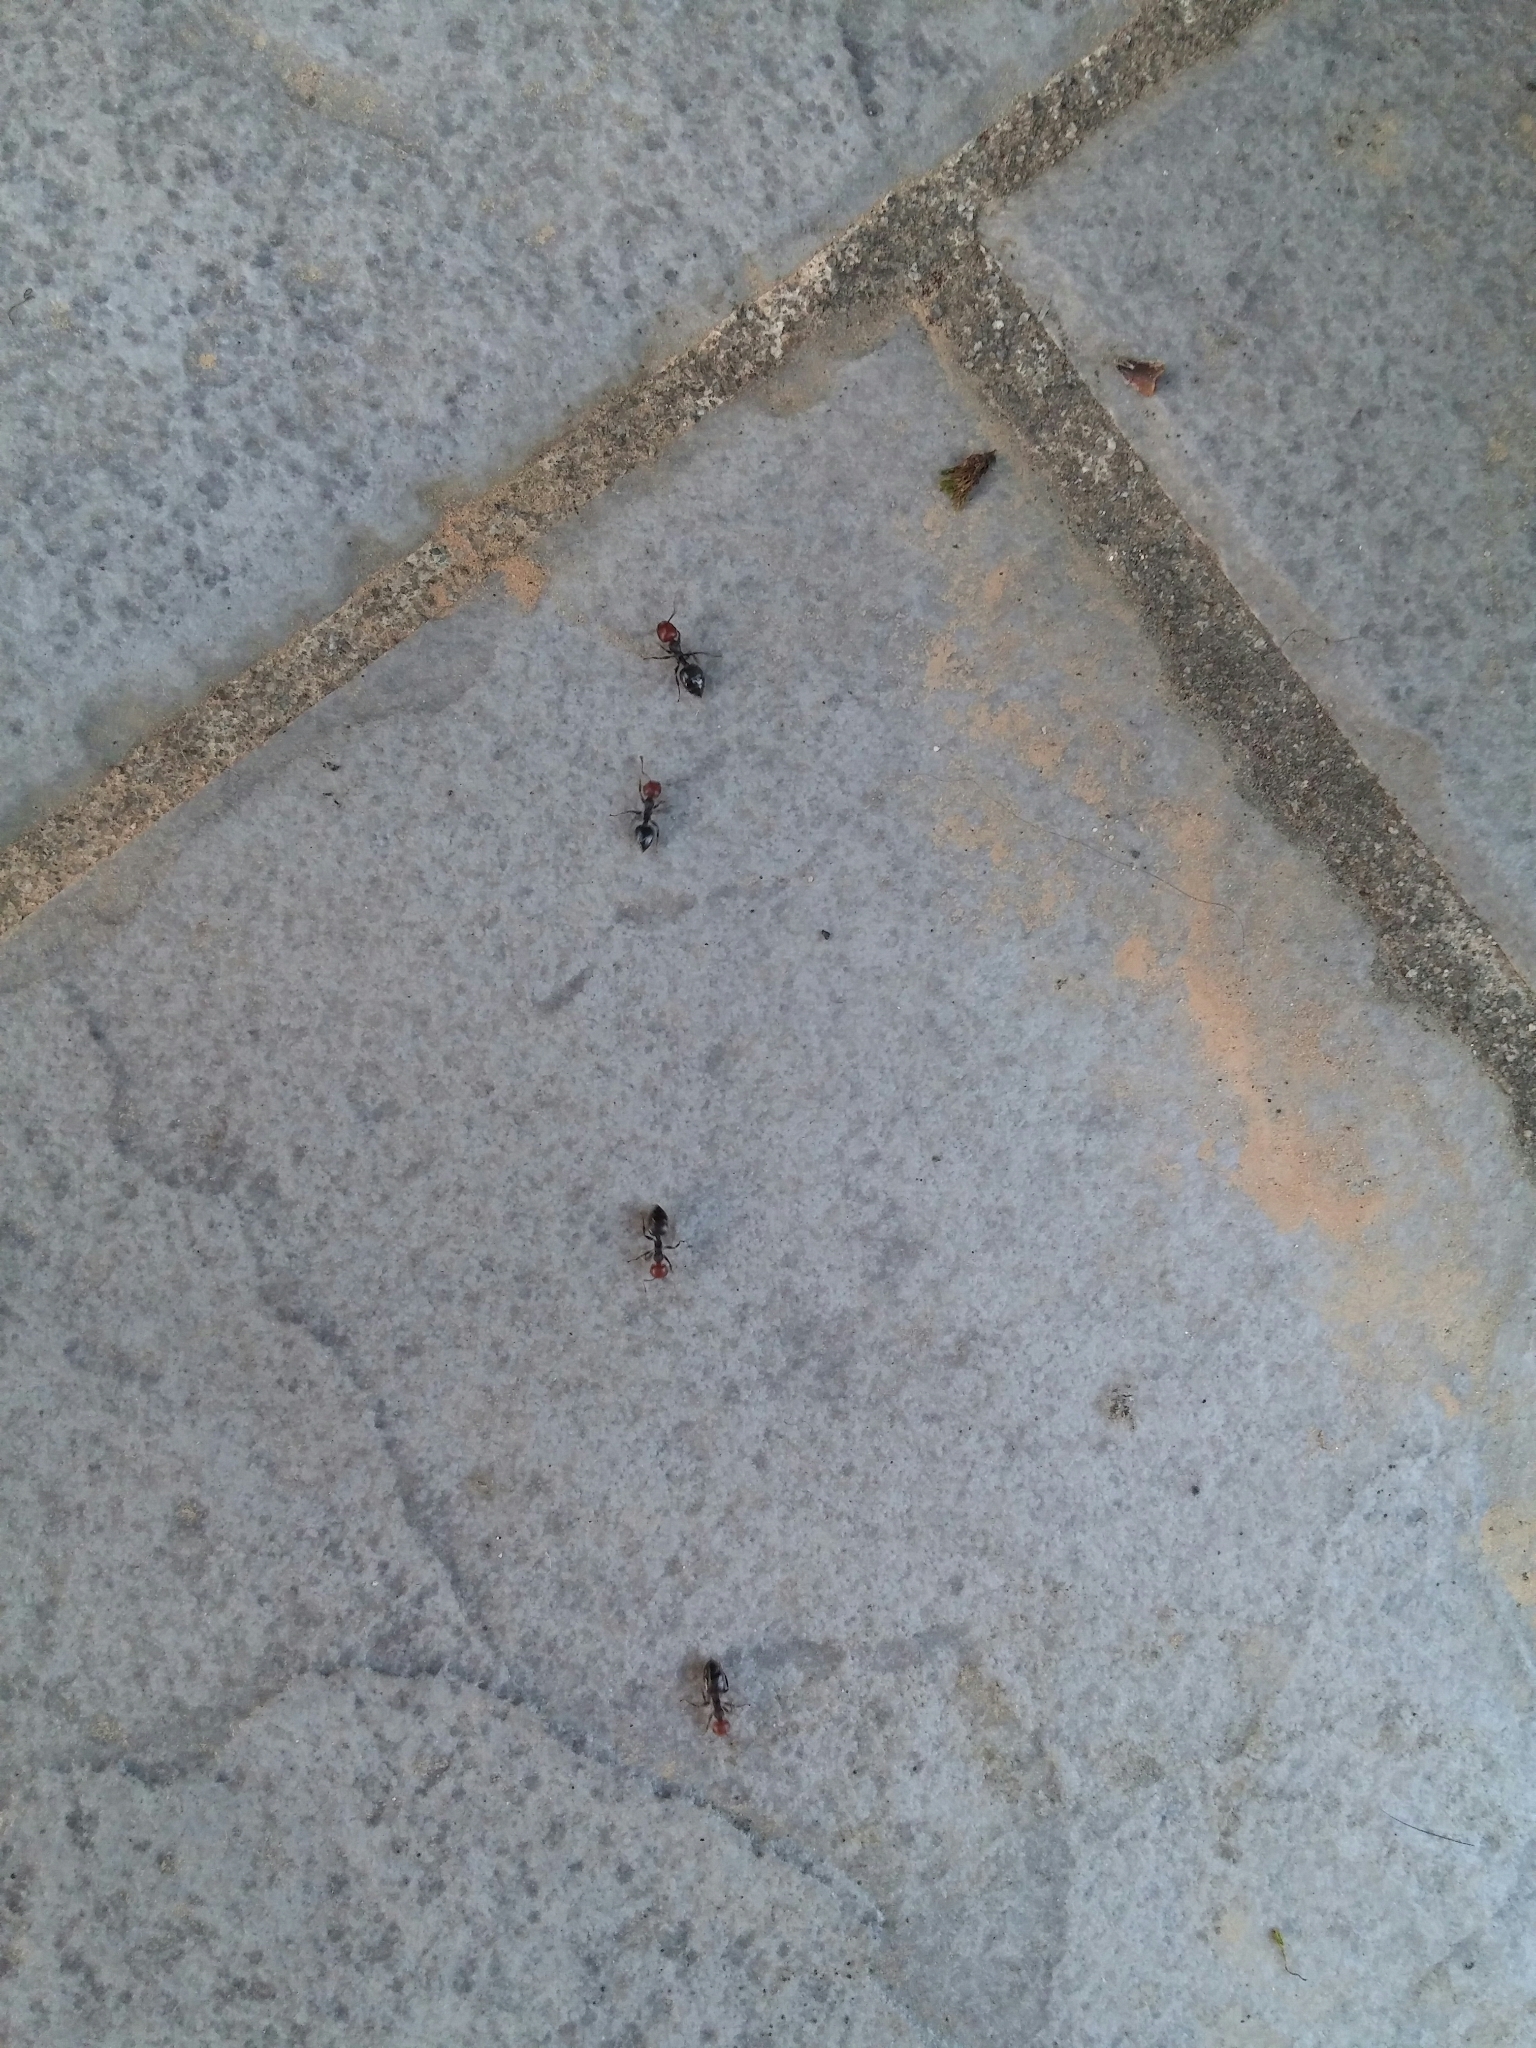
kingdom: Animalia
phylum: Arthropoda
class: Insecta
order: Hymenoptera
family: Formicidae
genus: Crematogaster
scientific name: Crematogaster scutellaris
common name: Fourmi du liège
